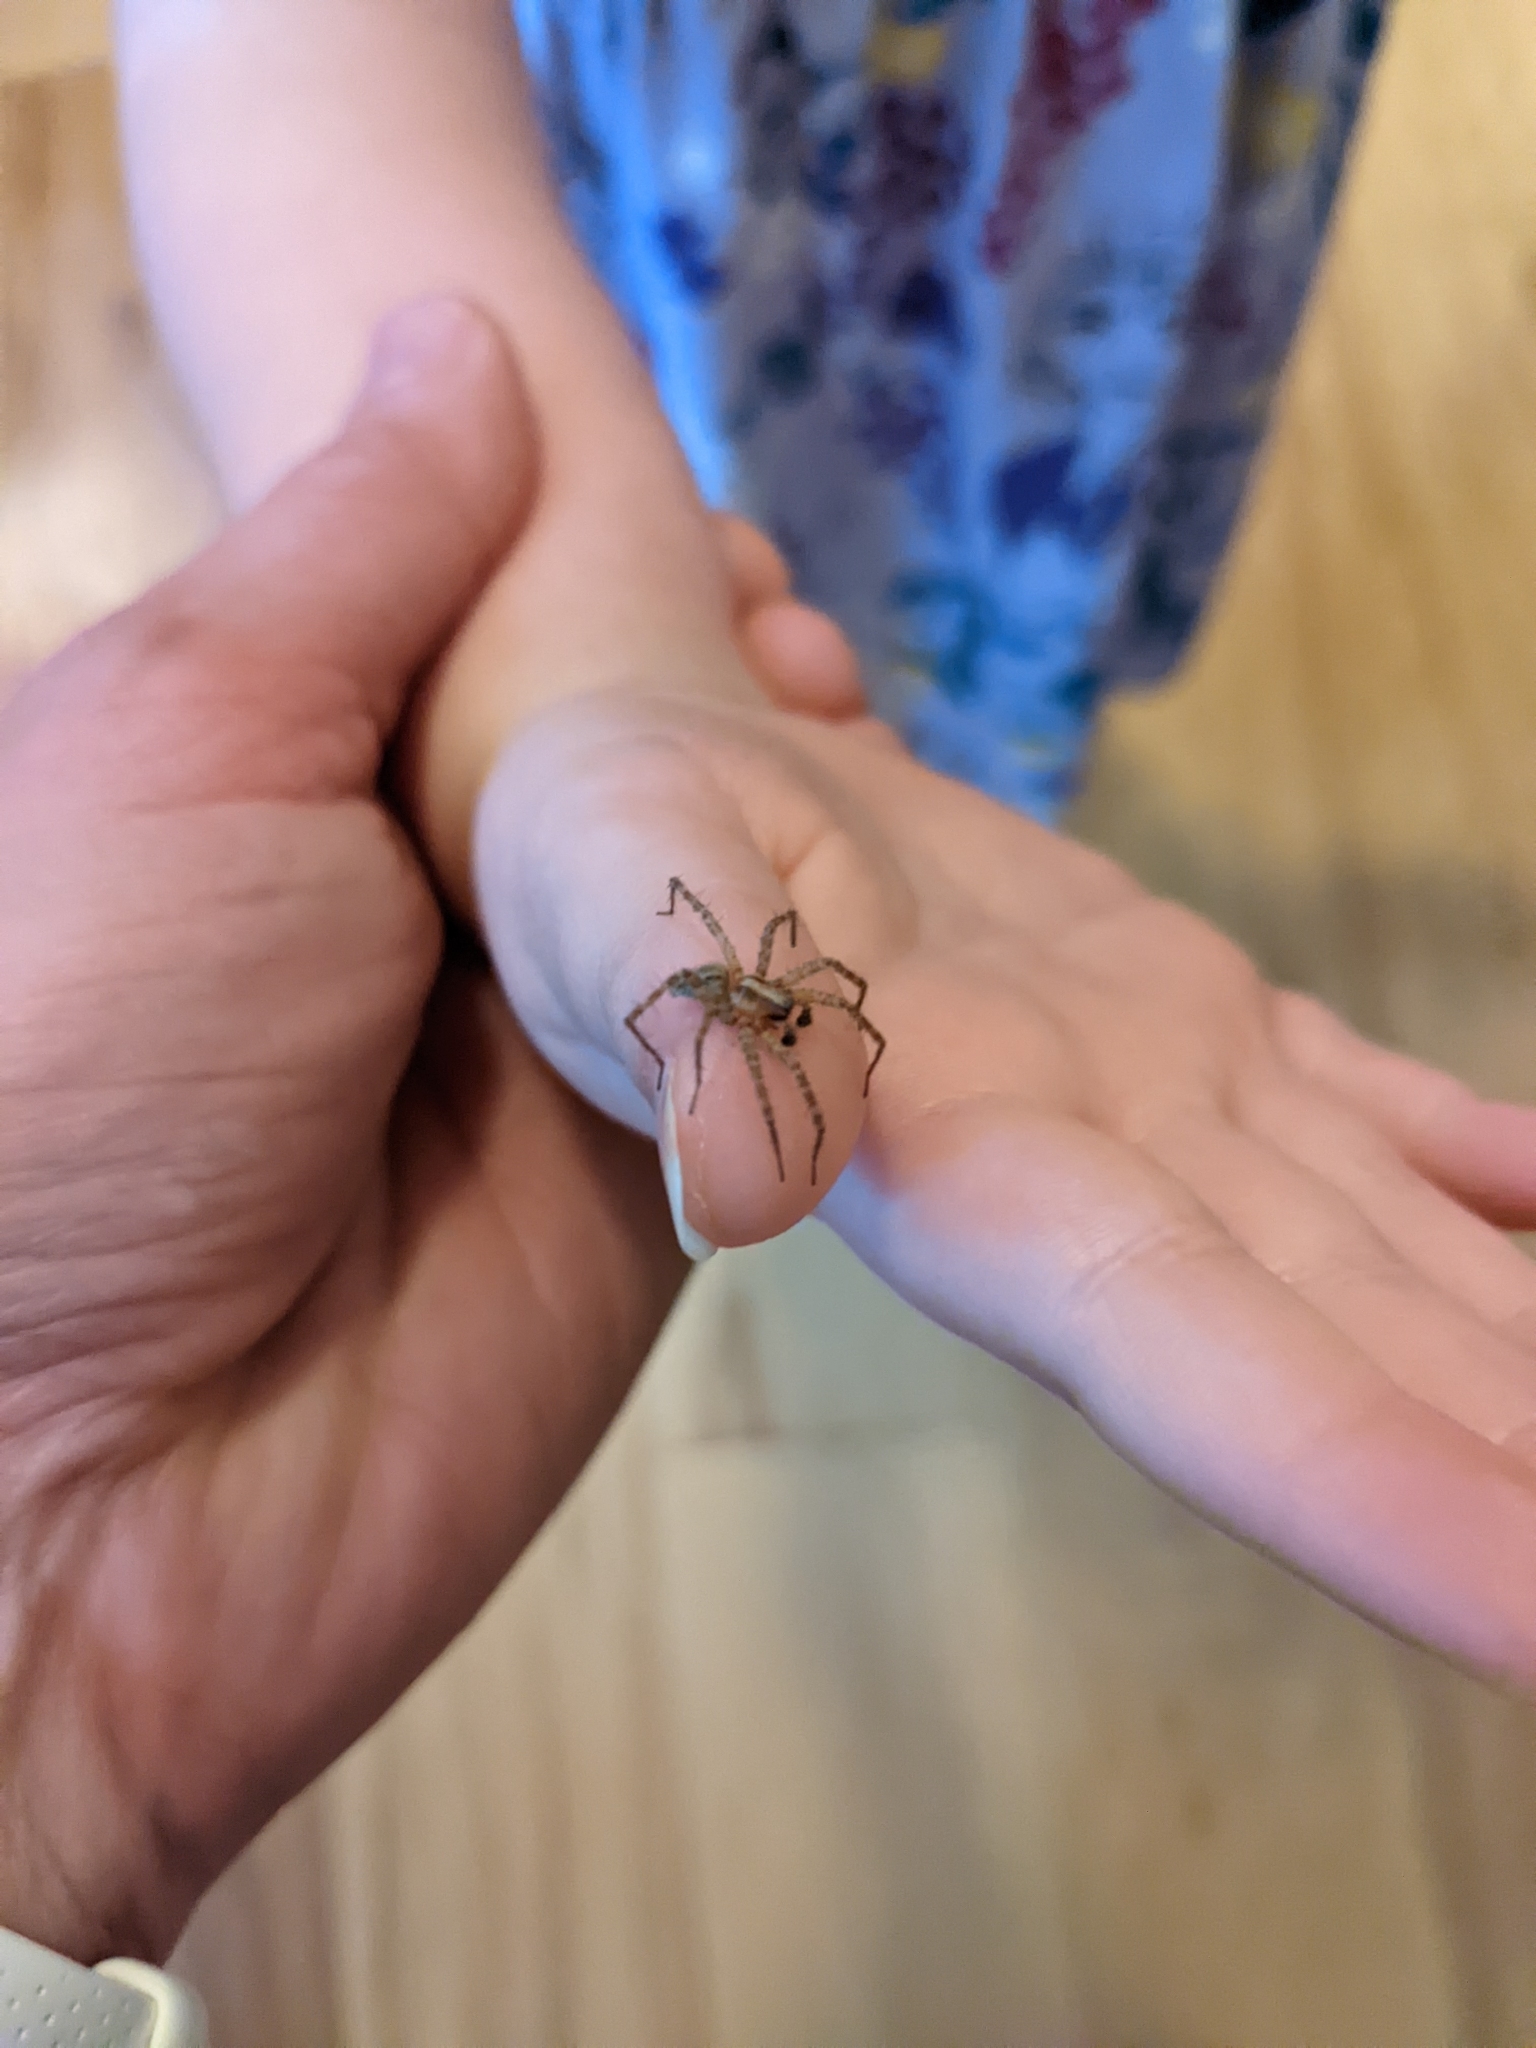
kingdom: Animalia
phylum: Arthropoda
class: Arachnida
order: Araneae
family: Agelenidae
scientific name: Agelenidae
